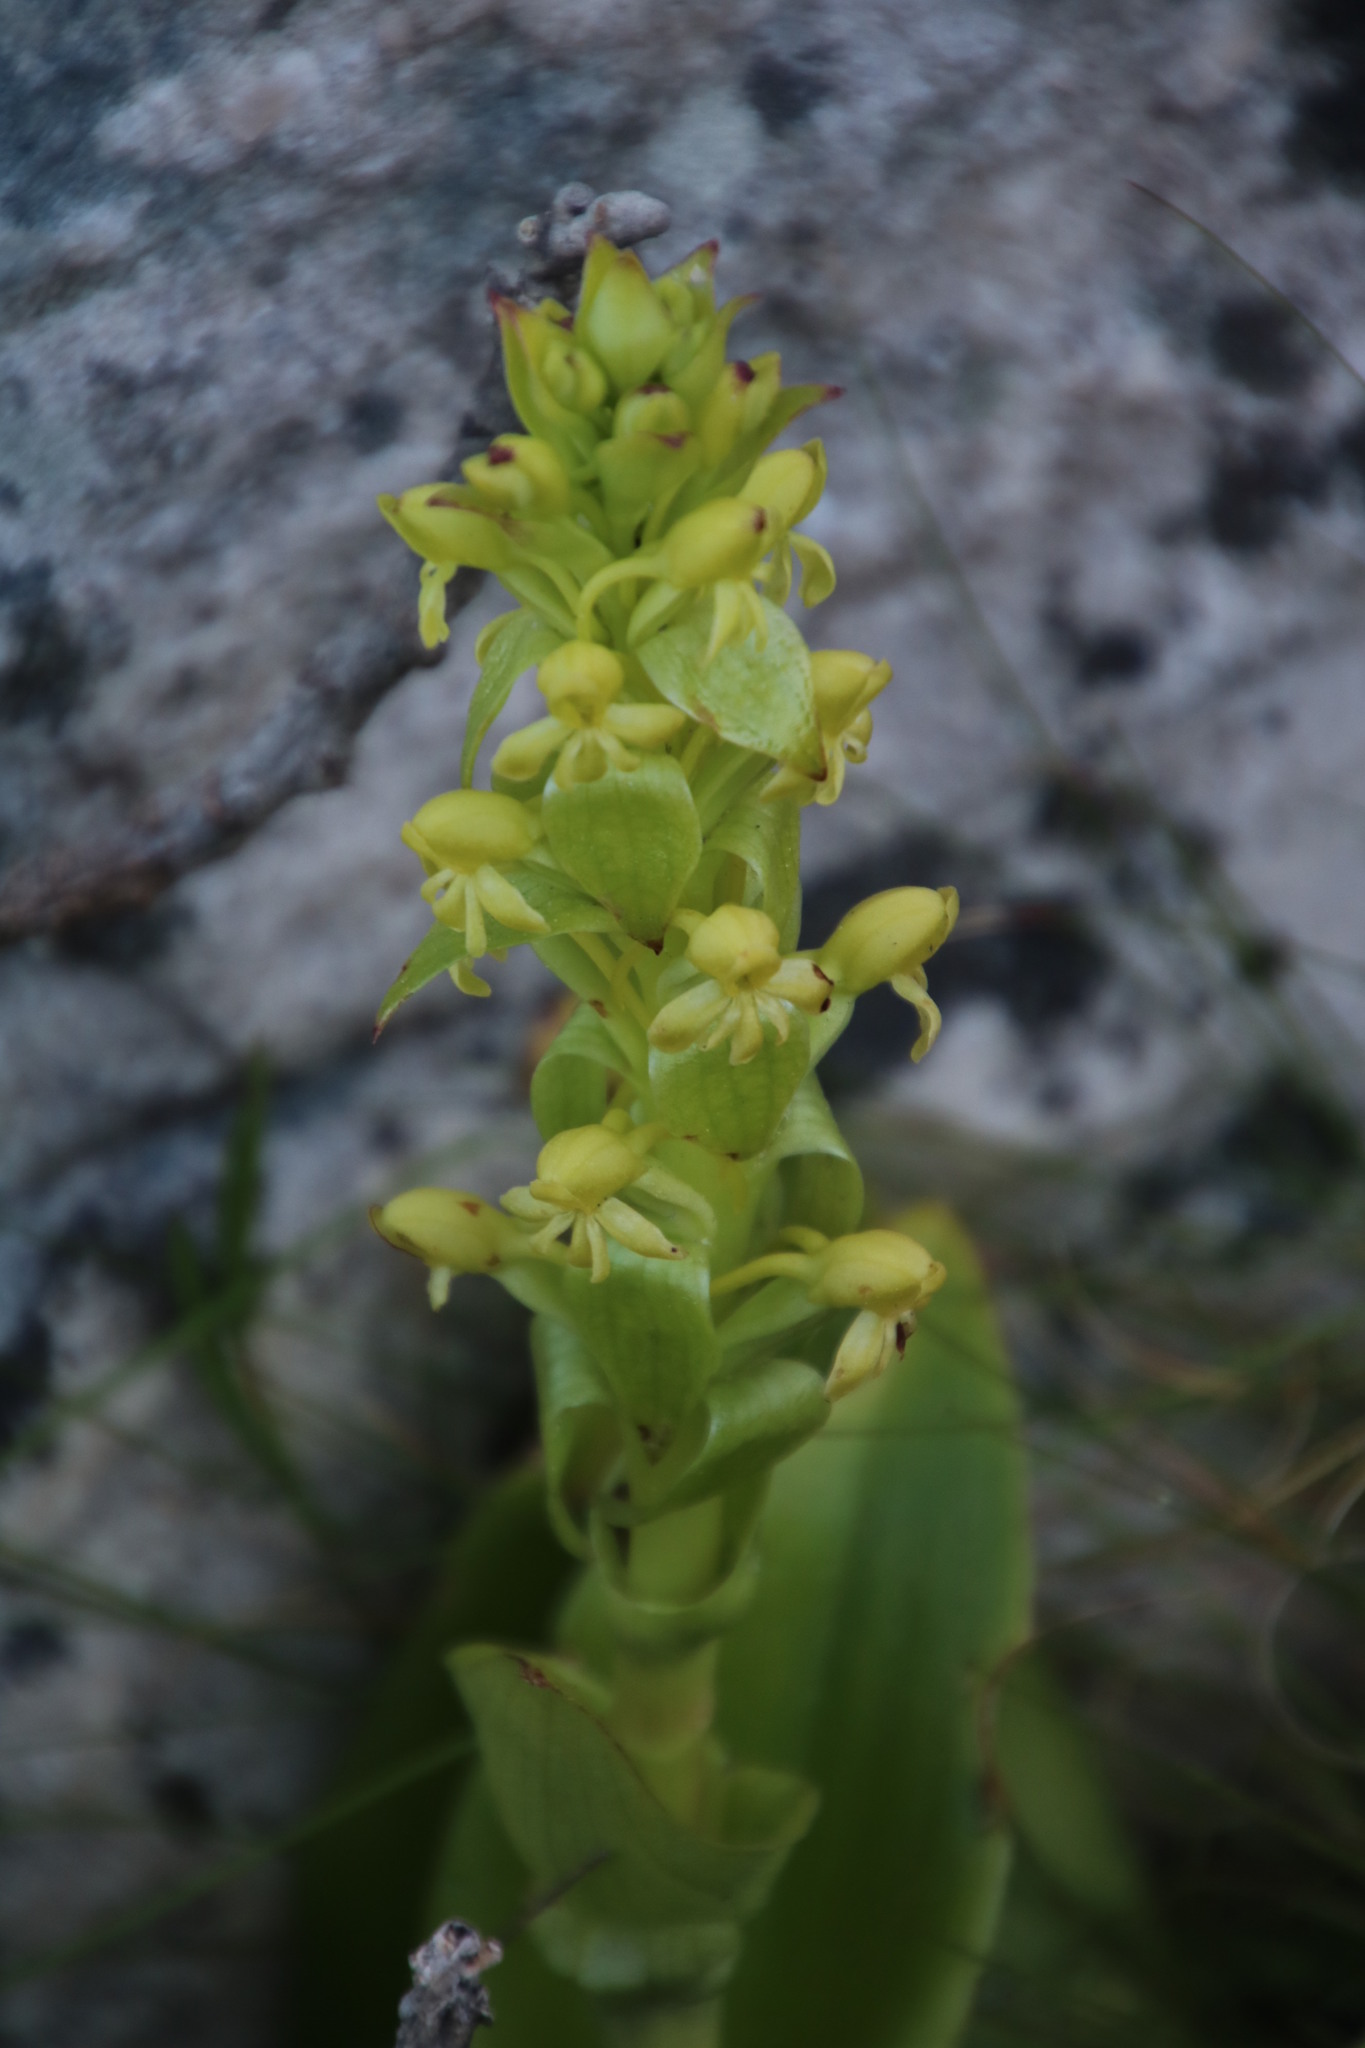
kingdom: Plantae
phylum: Tracheophyta
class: Liliopsida
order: Asparagales
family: Orchidaceae
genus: Satyrium
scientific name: Satyrium odorum
